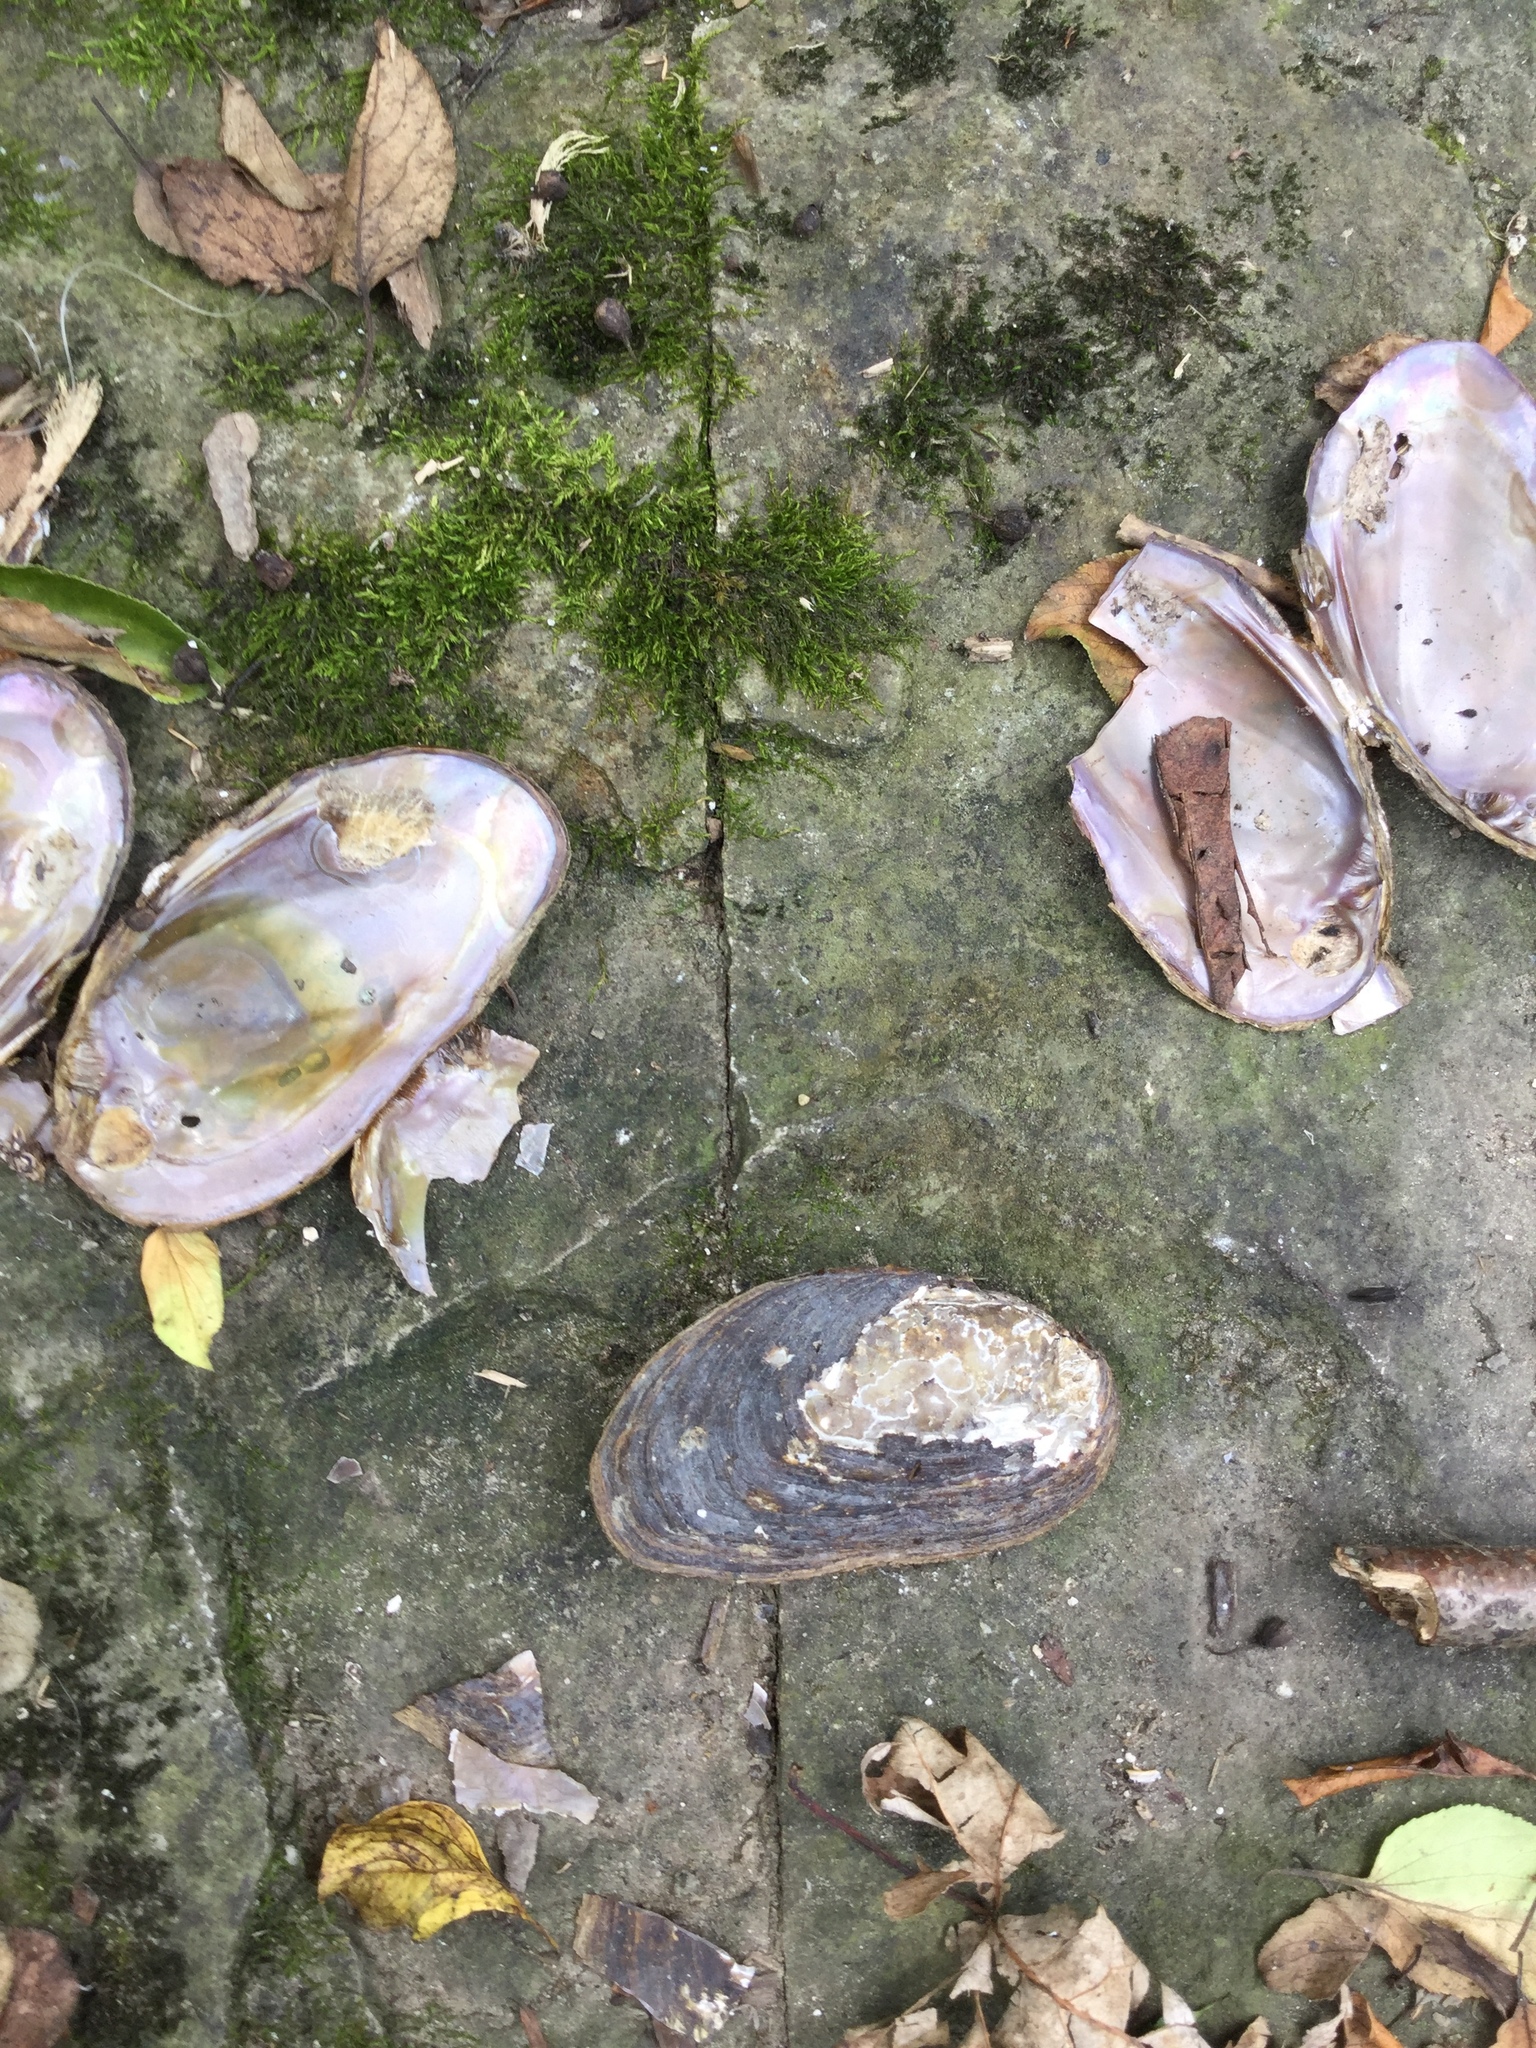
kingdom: Animalia
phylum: Mollusca
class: Bivalvia
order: Unionida
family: Unionidae
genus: Elliptio
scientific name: Elliptio complanata
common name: Eastern elliptio
